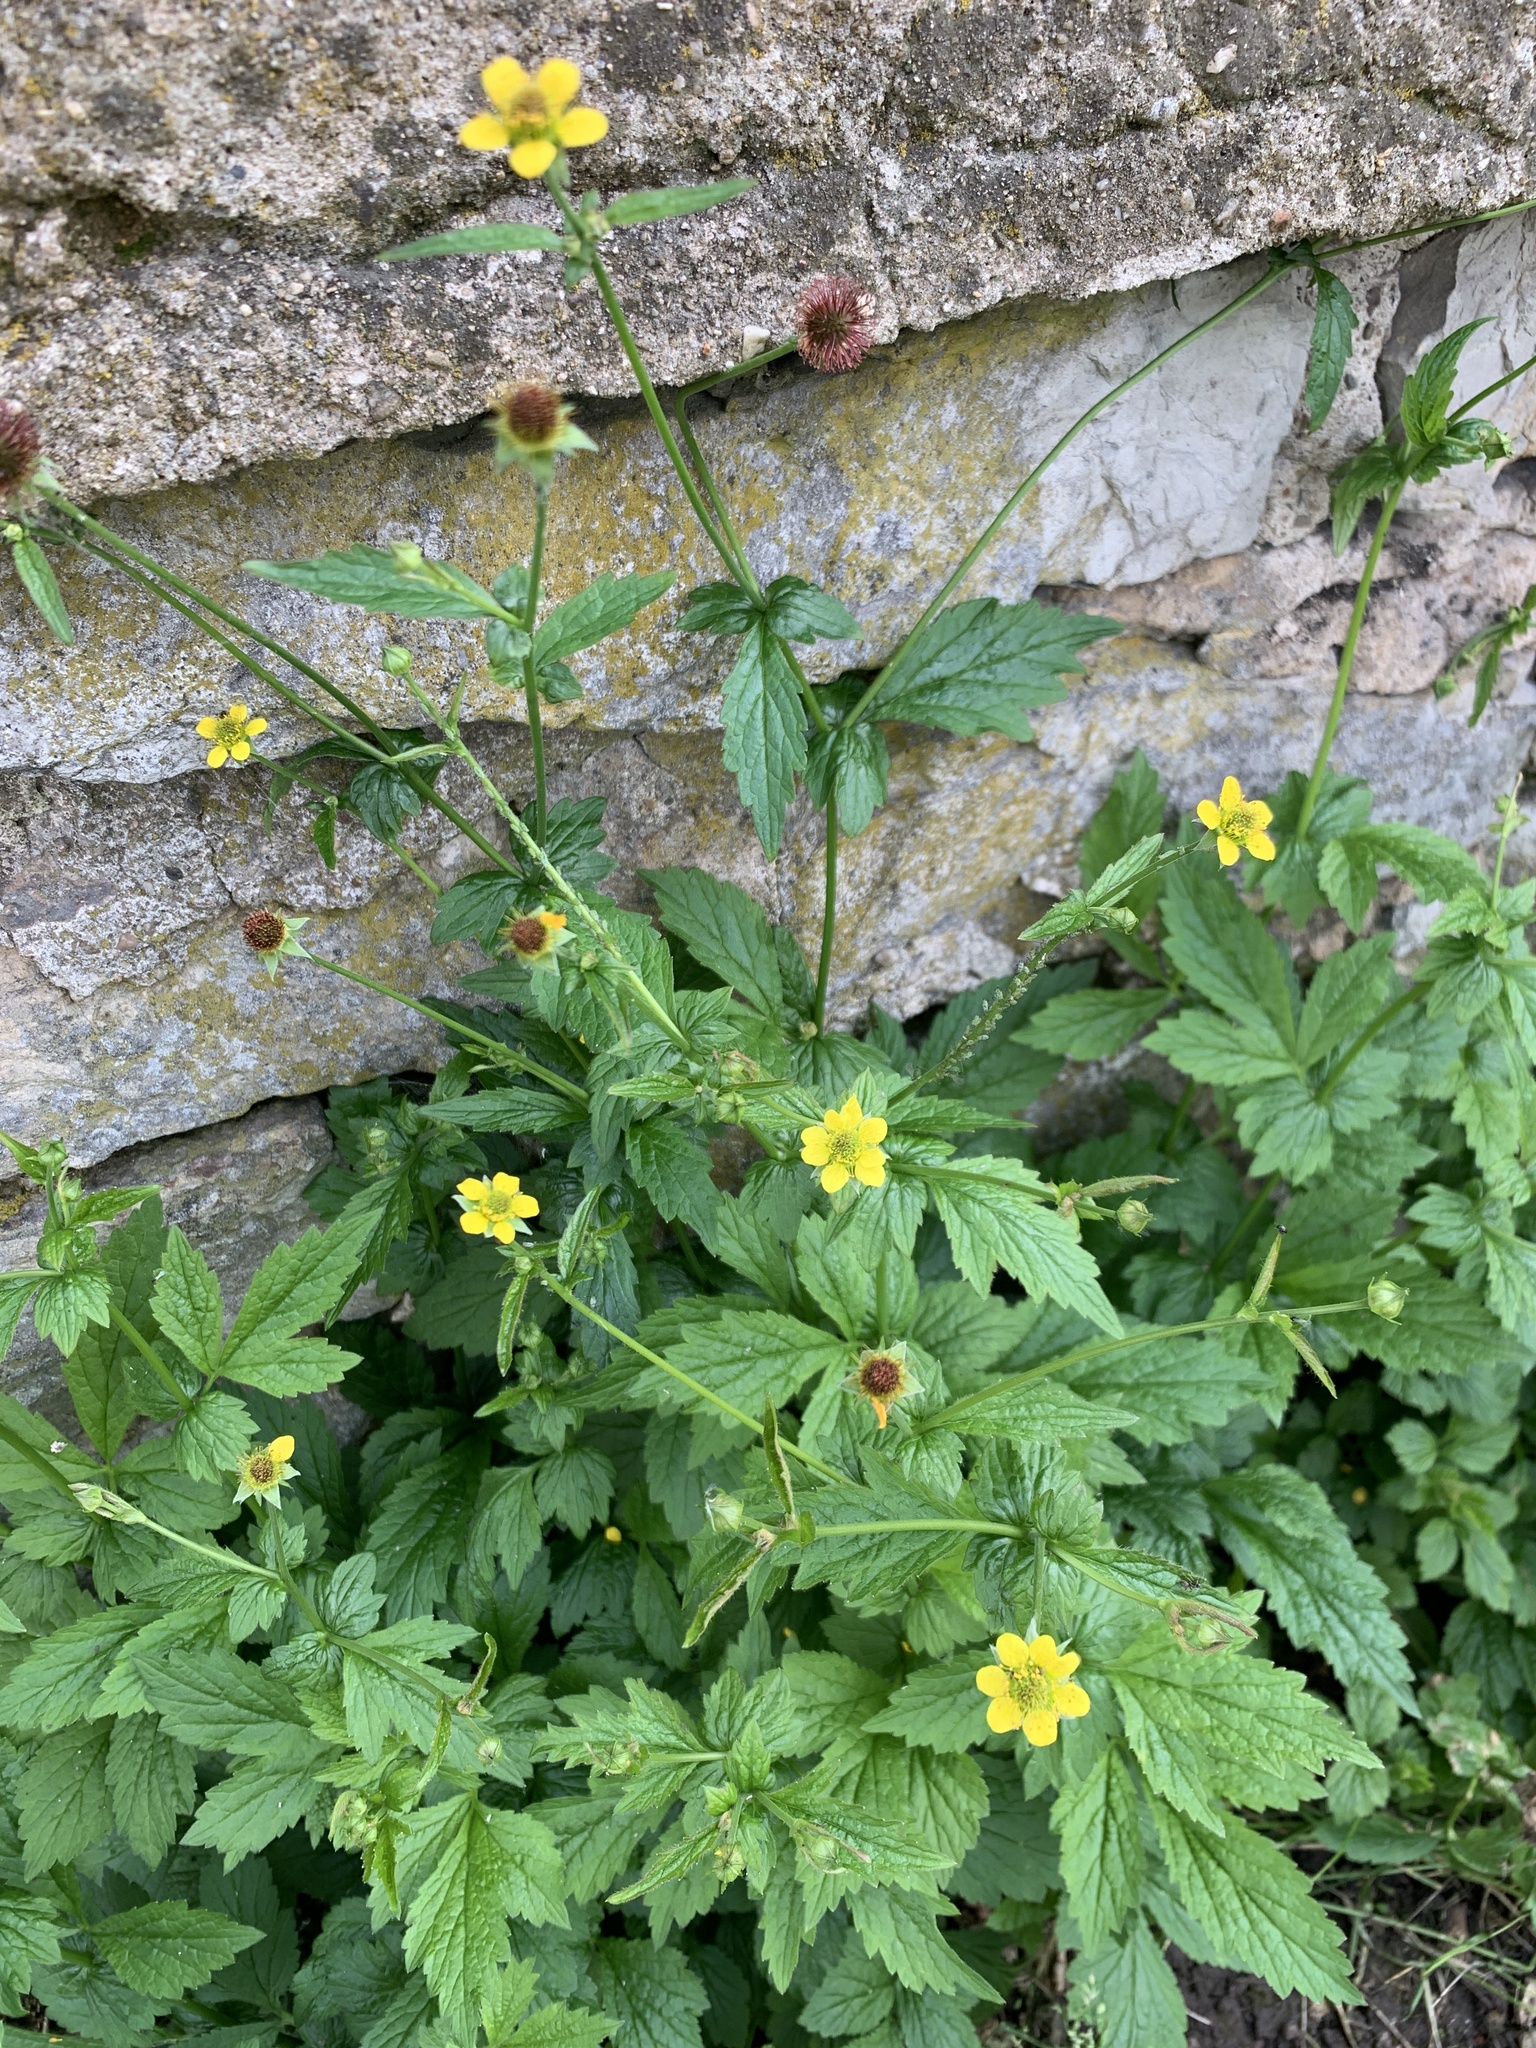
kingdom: Plantae
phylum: Tracheophyta
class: Magnoliopsida
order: Rosales
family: Rosaceae
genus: Geum
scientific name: Geum urbanum
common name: Wood avens
